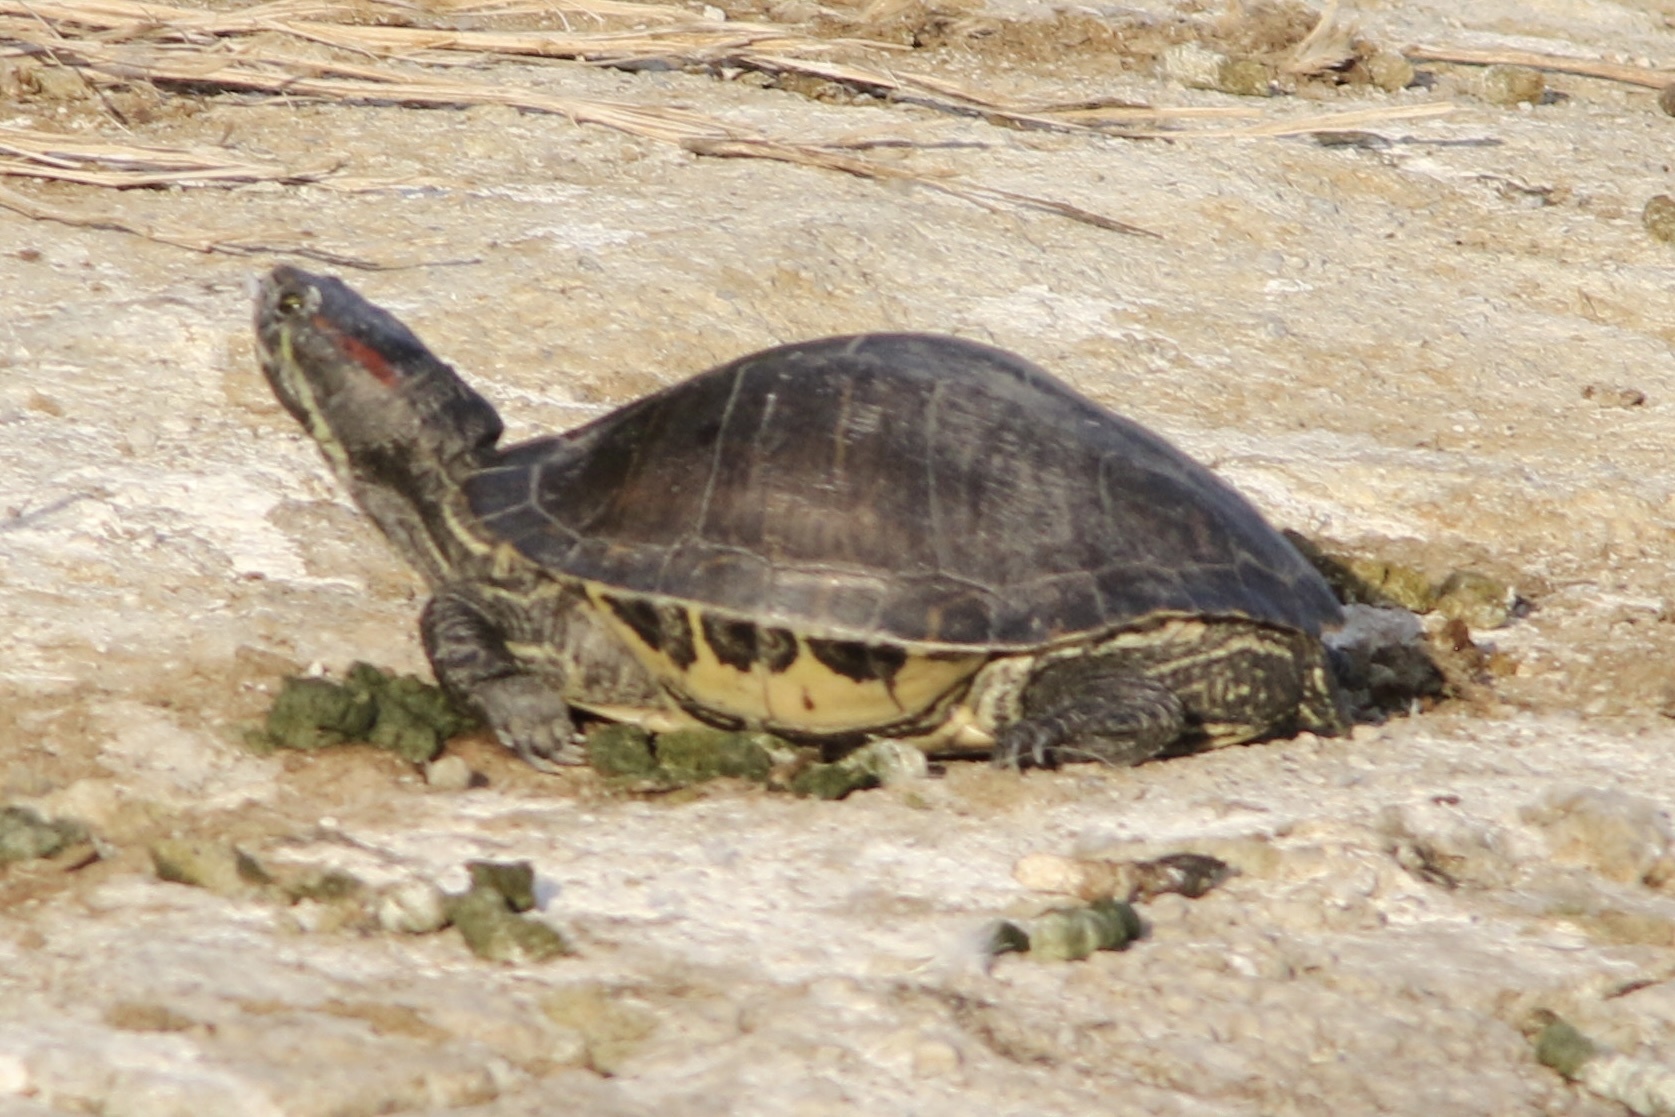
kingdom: Animalia
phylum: Chordata
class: Testudines
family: Emydidae
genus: Trachemys
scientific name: Trachemys scripta
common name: Slider
